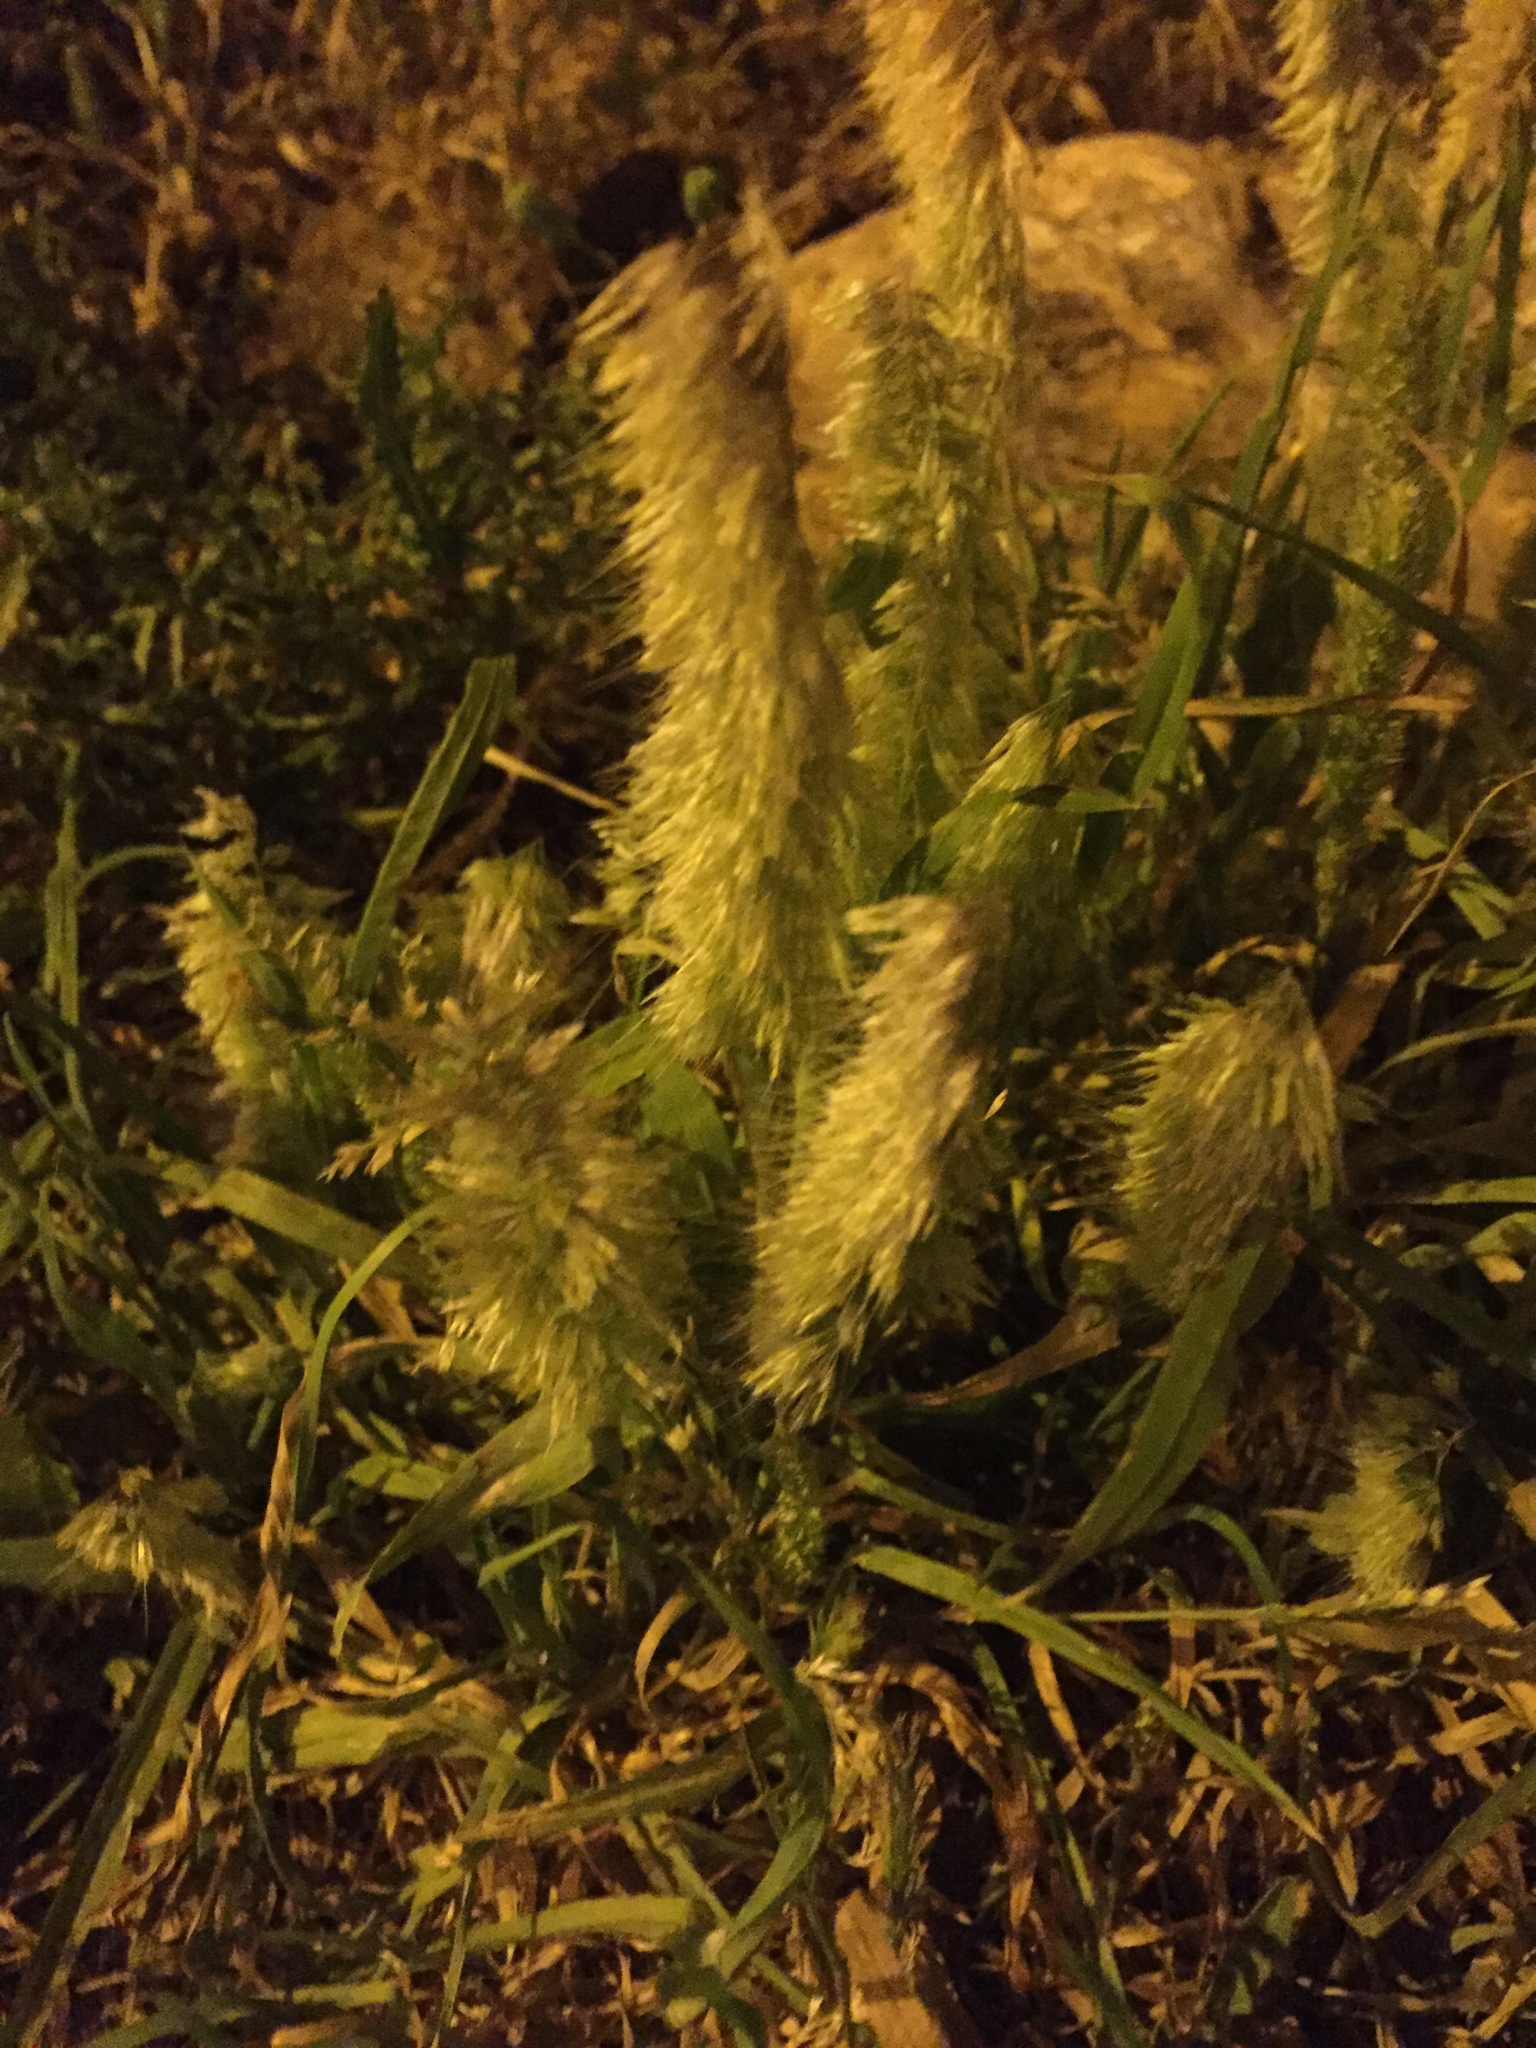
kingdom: Plantae
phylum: Tracheophyta
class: Liliopsida
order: Poales
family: Poaceae
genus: Lamarckia
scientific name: Lamarckia aurea
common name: Golden dog's-tail
